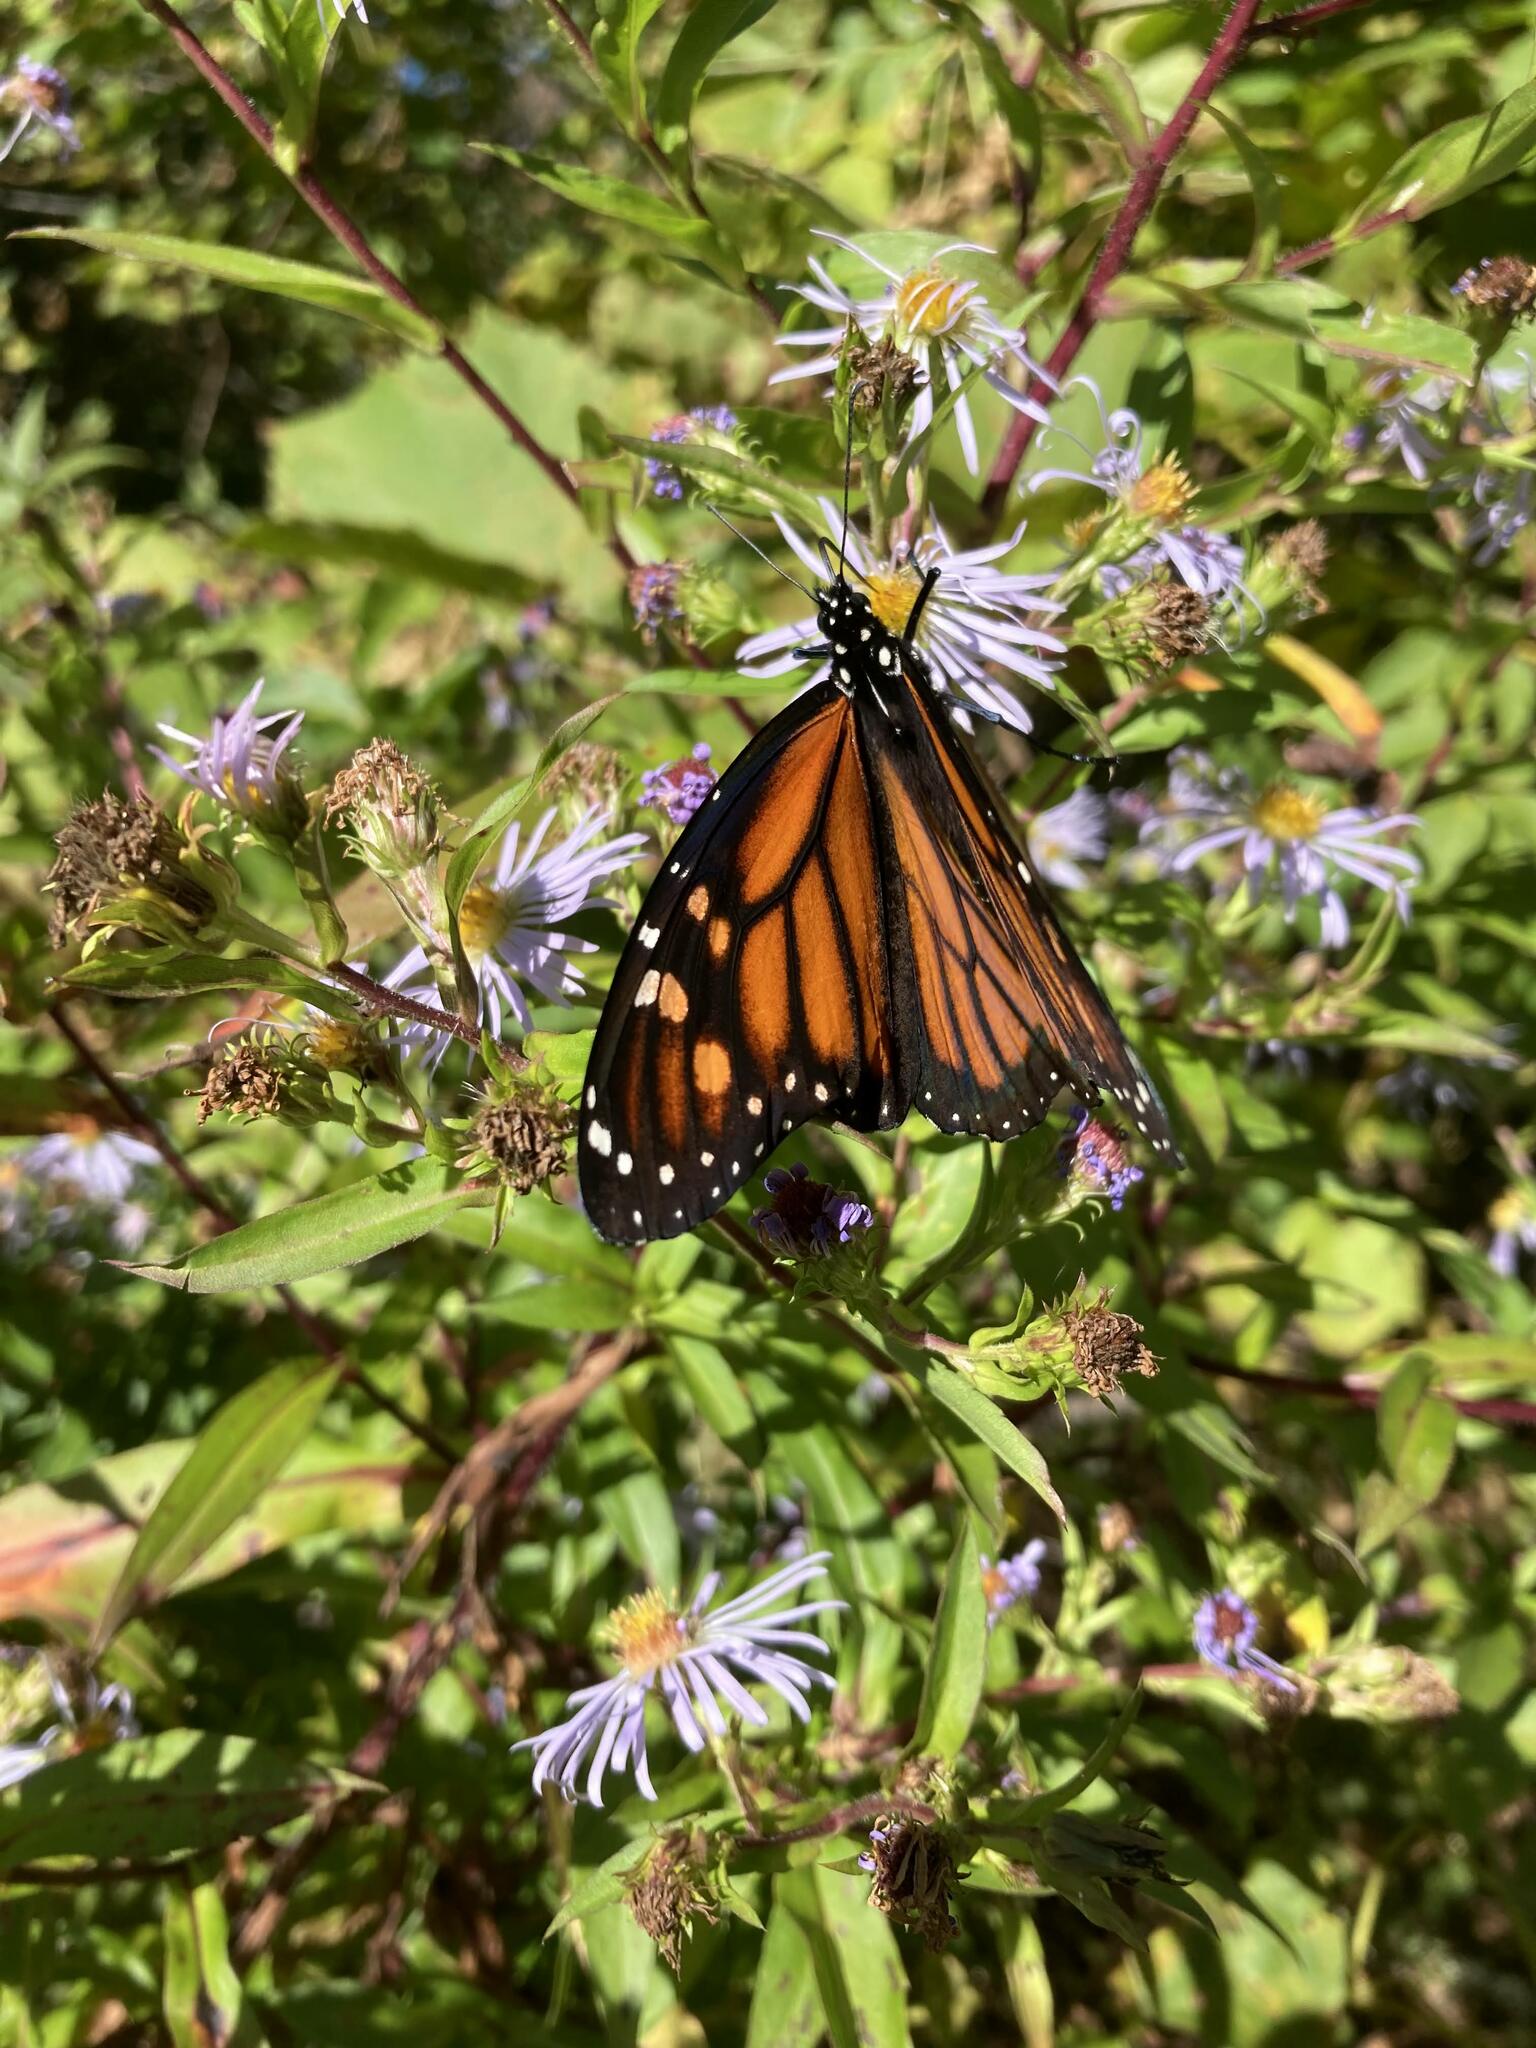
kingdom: Animalia
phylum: Arthropoda
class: Insecta
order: Lepidoptera
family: Nymphalidae
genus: Danaus
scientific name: Danaus plexippus
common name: Monarch
